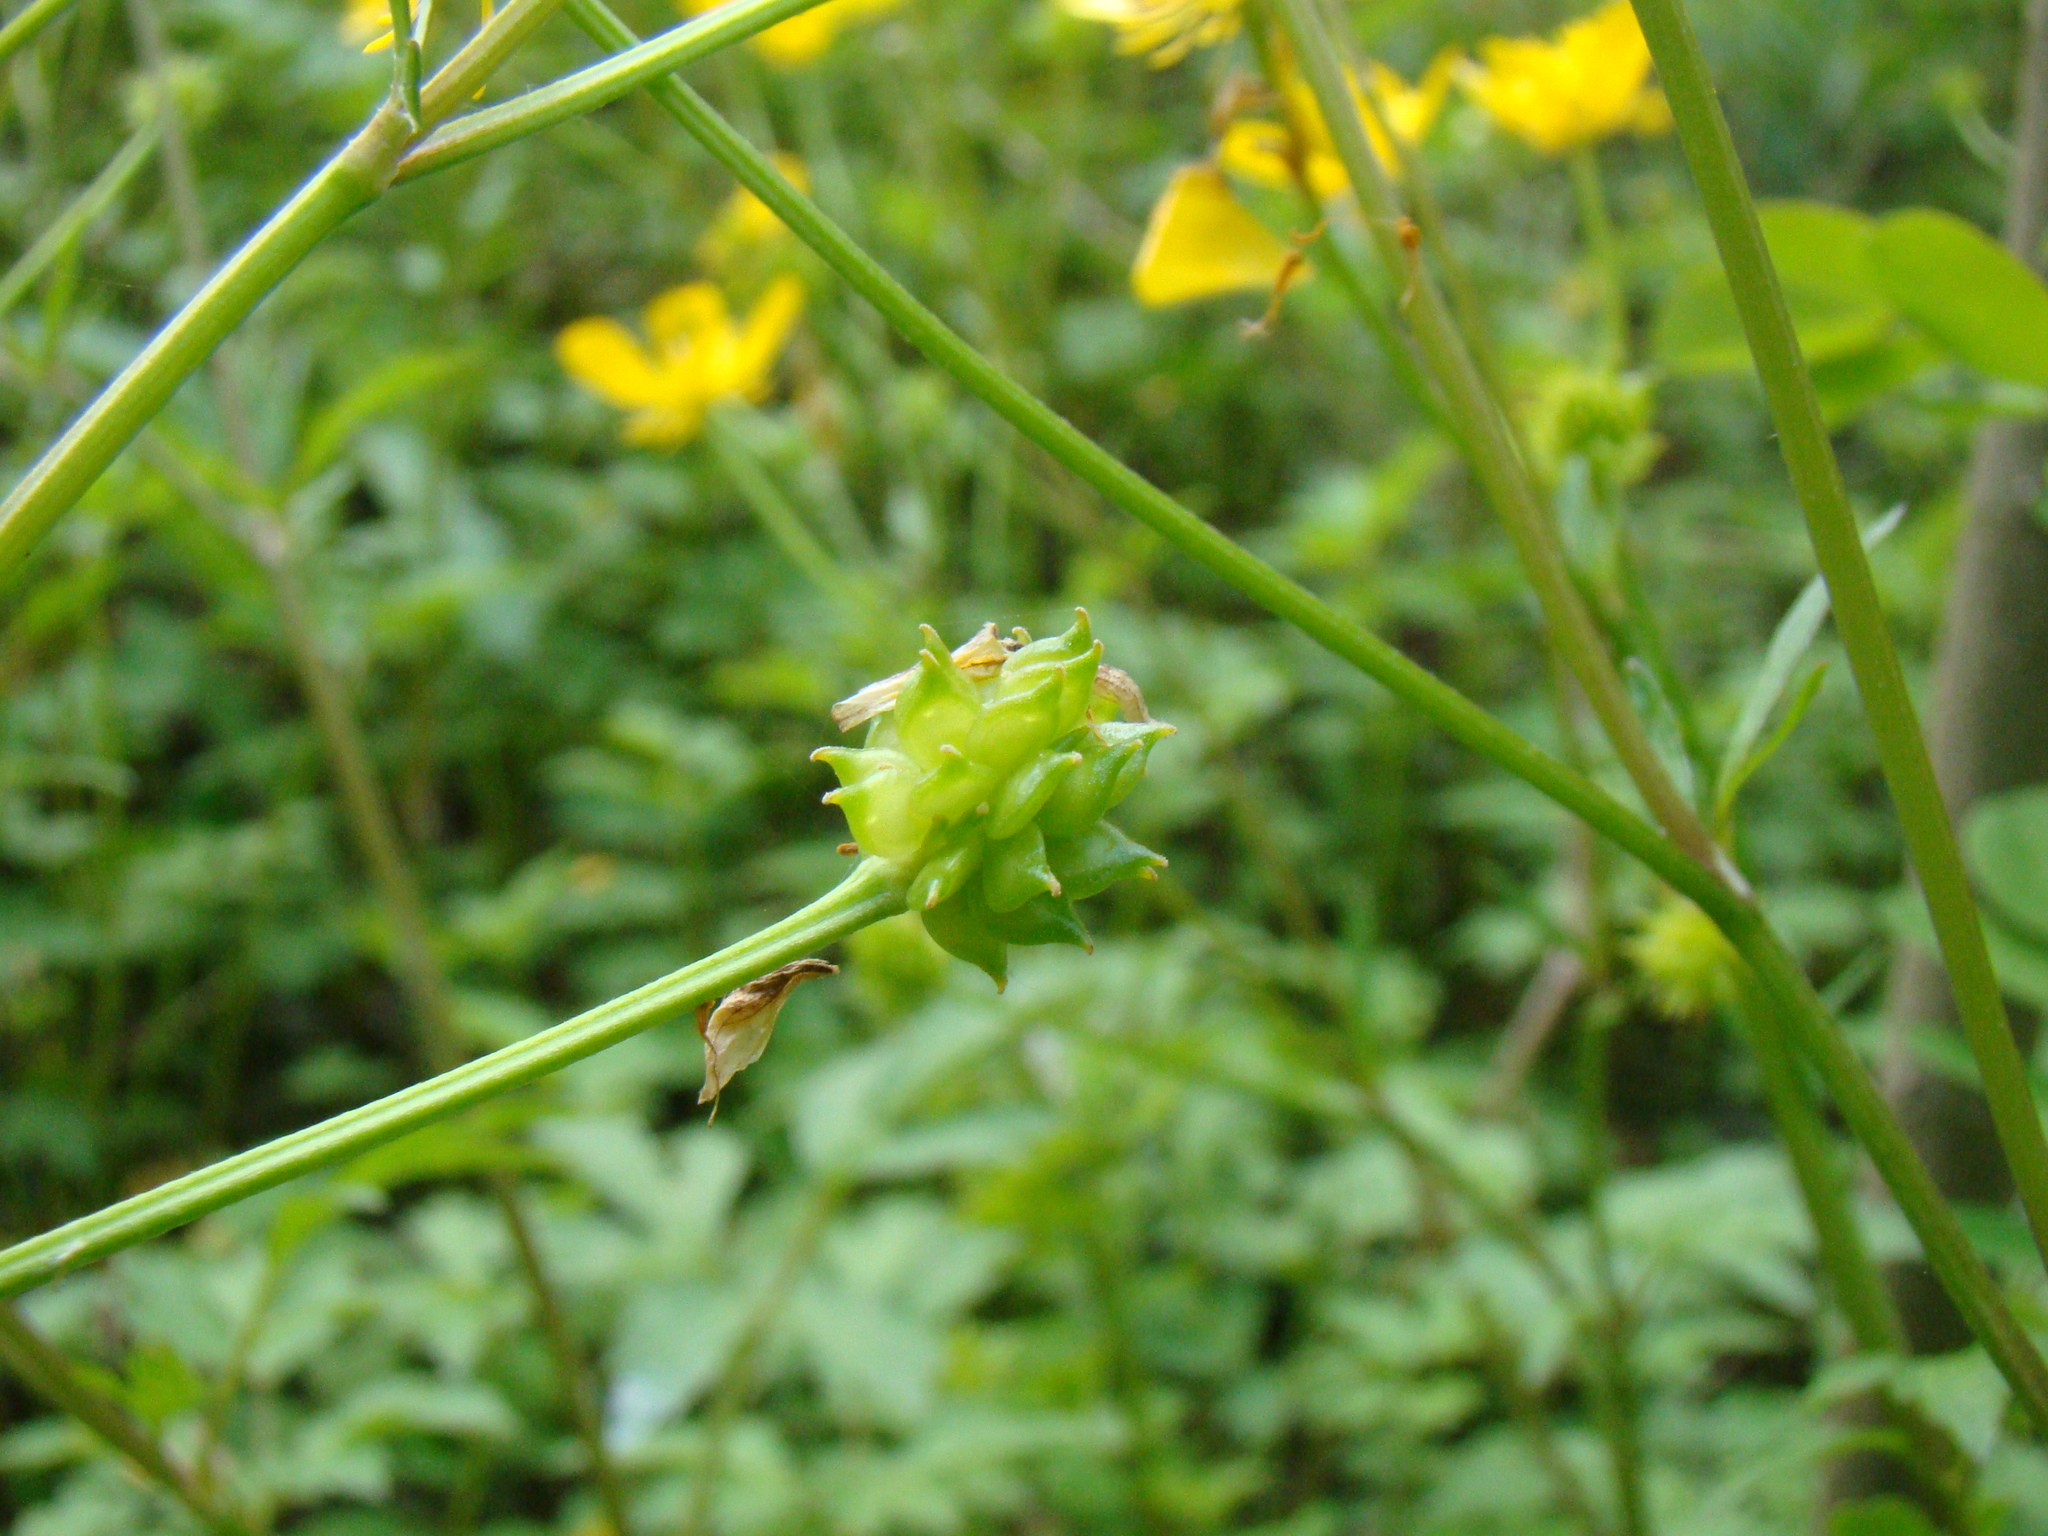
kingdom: Plantae
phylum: Tracheophyta
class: Magnoliopsida
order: Ranunculales
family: Ranunculaceae
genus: Ranunculus
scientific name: Ranunculus repens
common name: Creeping buttercup
